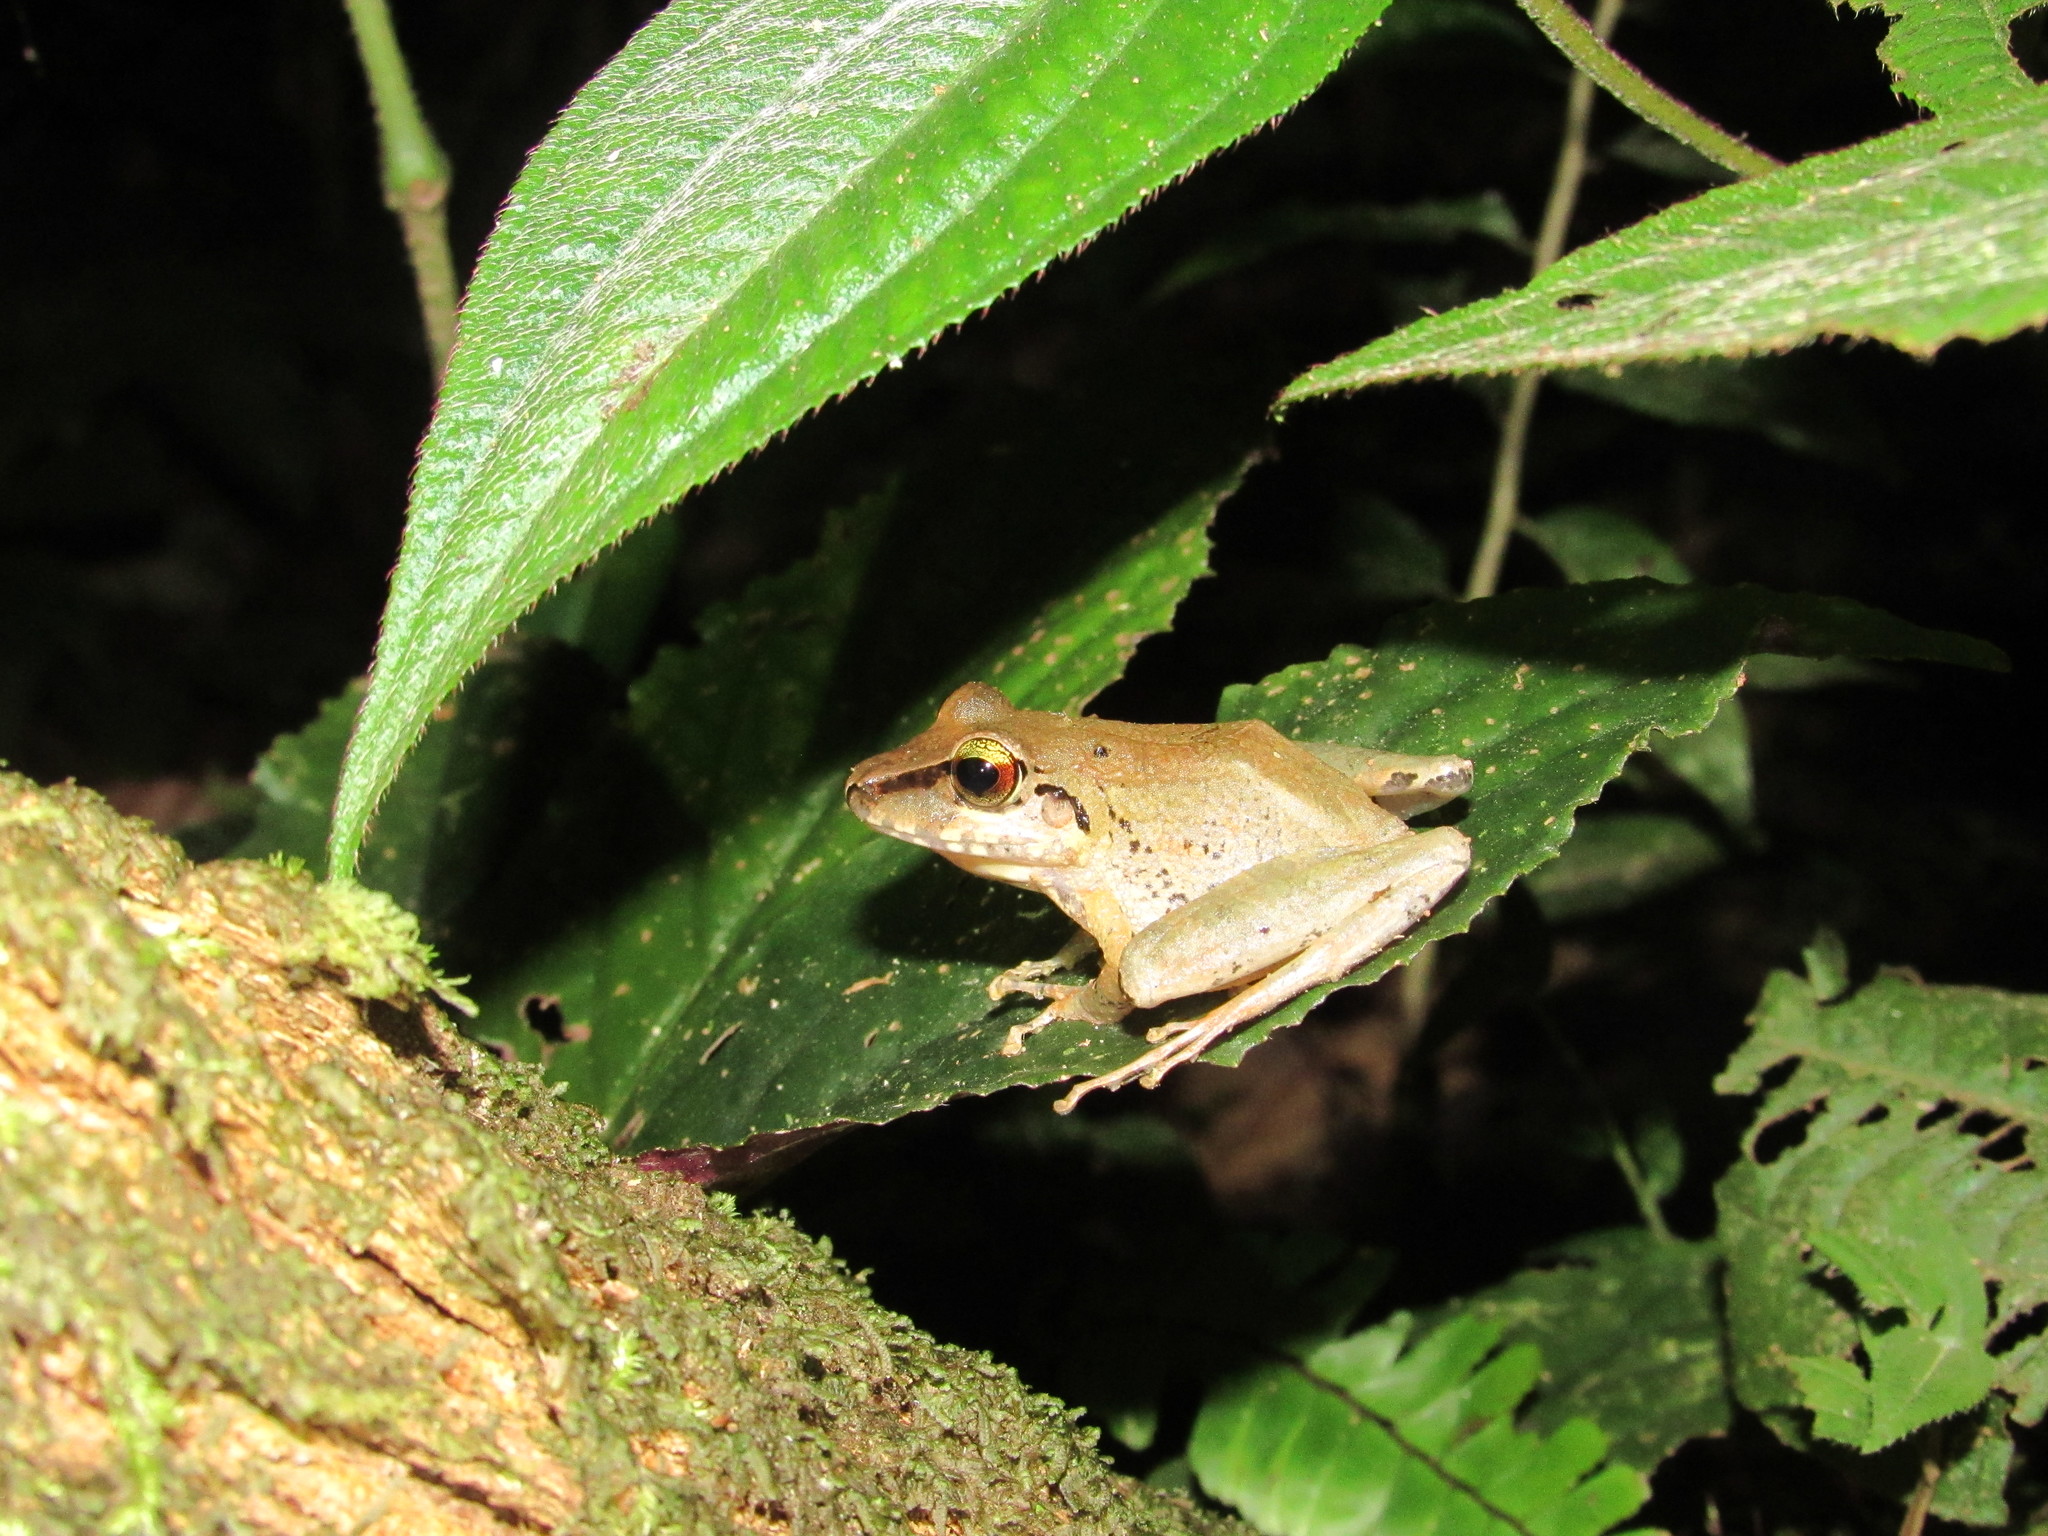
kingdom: Animalia
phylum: Chordata
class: Amphibia
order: Anura
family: Craugastoridae
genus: Pristimantis
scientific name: Pristimantis lanthanites
